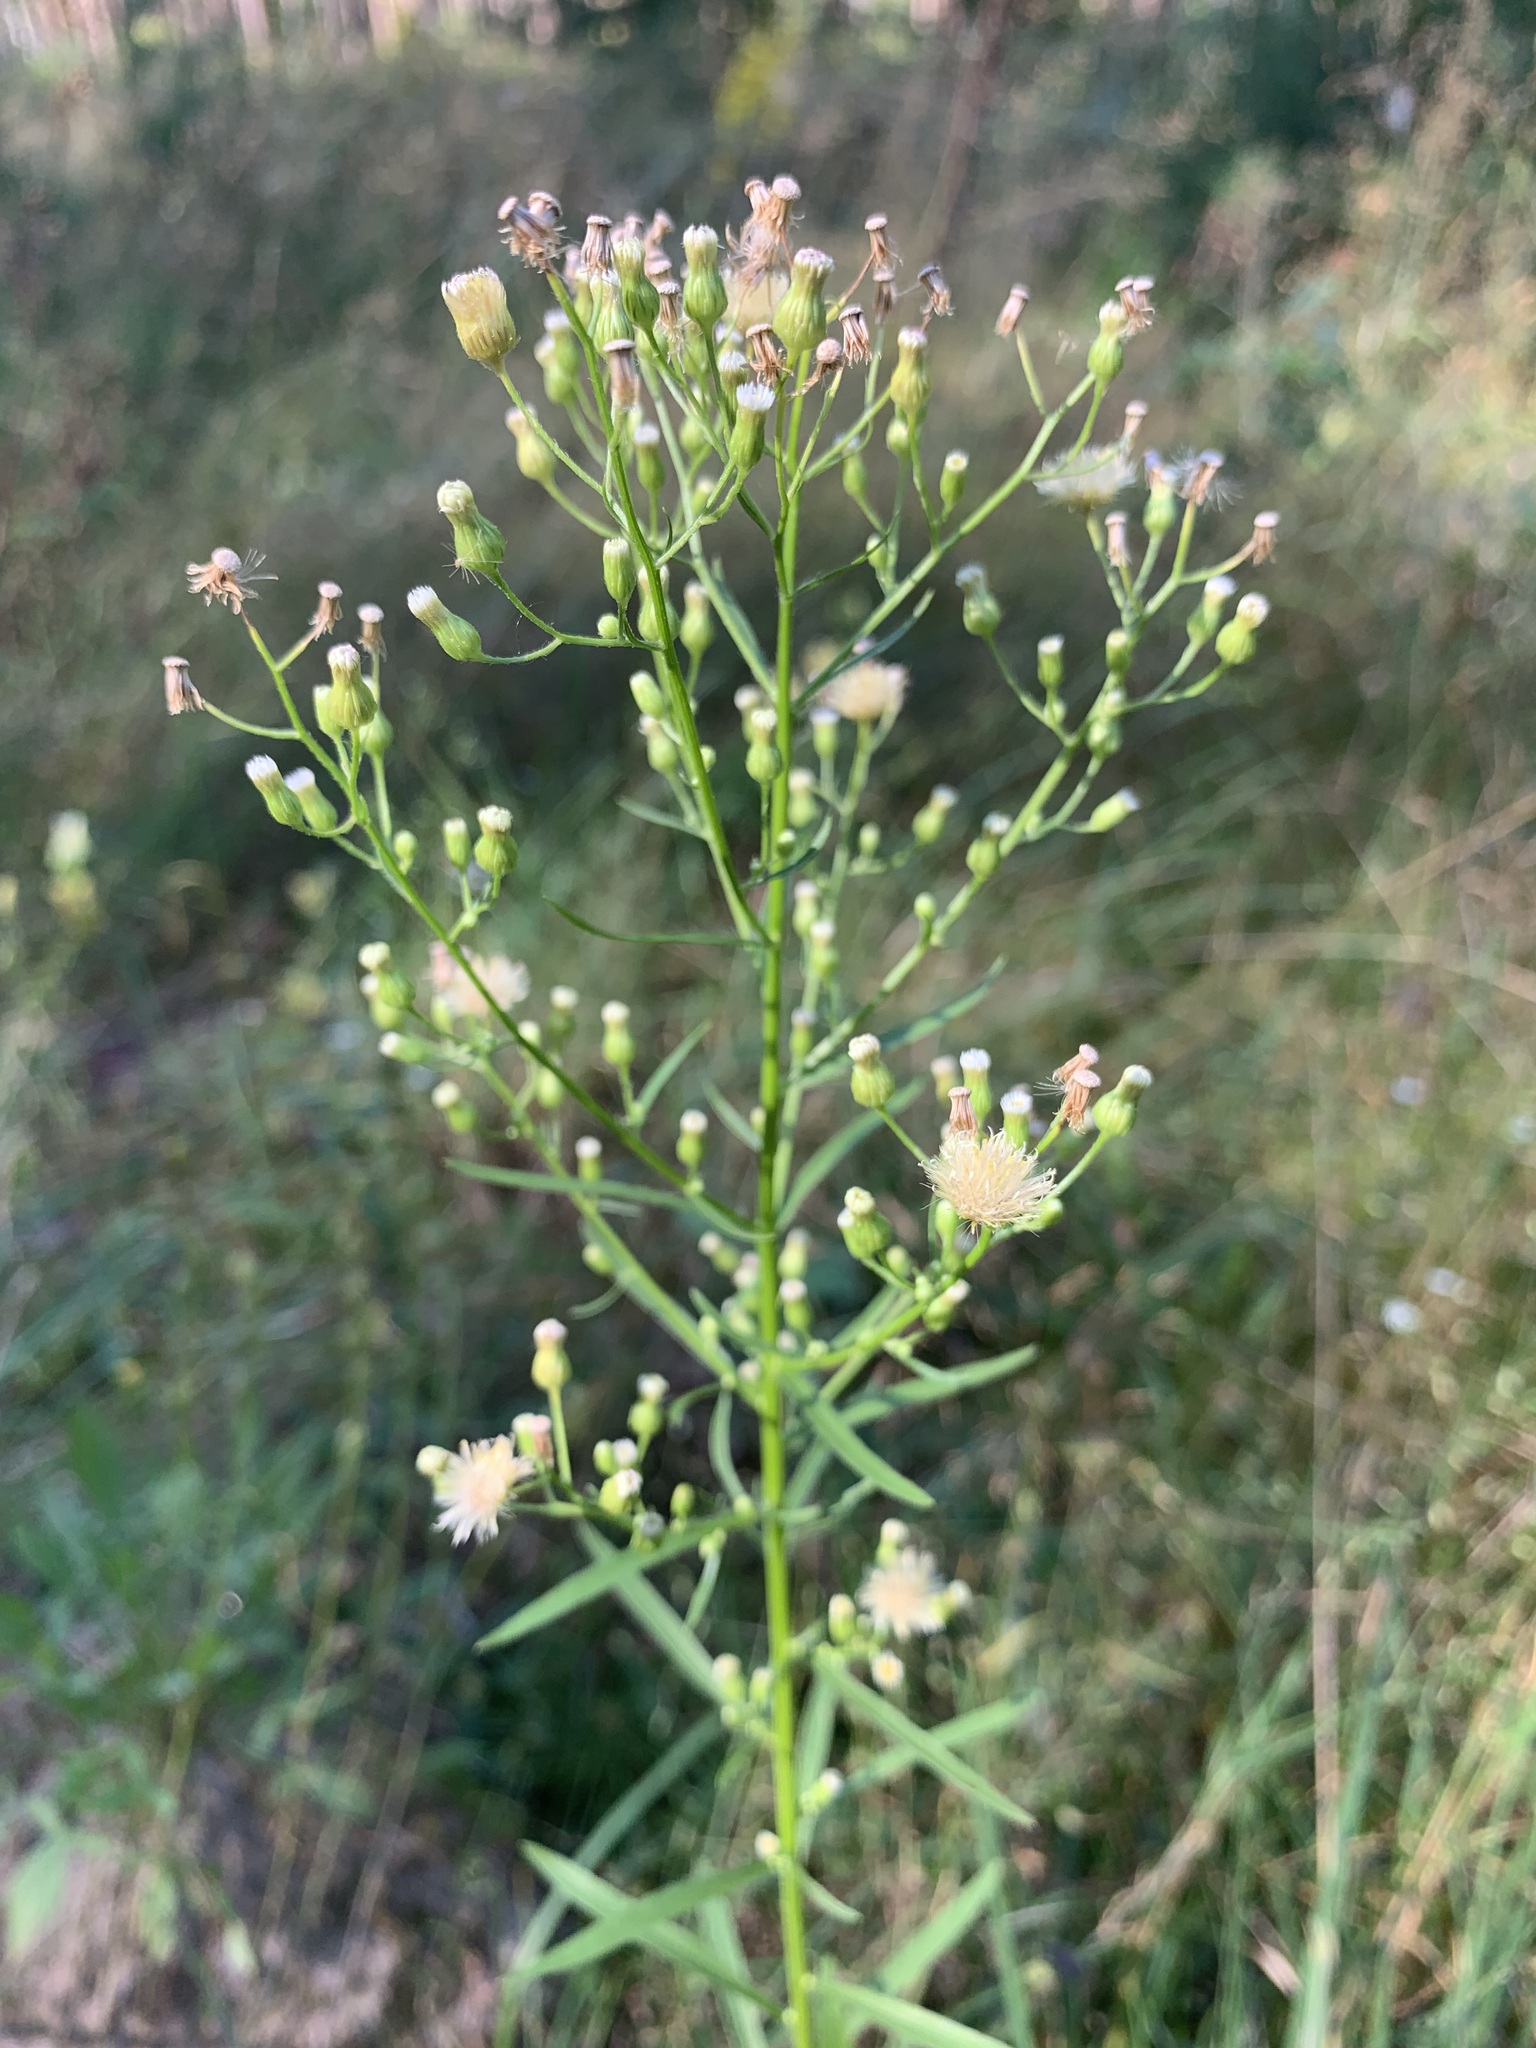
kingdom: Plantae
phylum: Tracheophyta
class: Magnoliopsida
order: Asterales
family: Asteraceae
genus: Erigeron
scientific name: Erigeron canadensis
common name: Canadian fleabane
